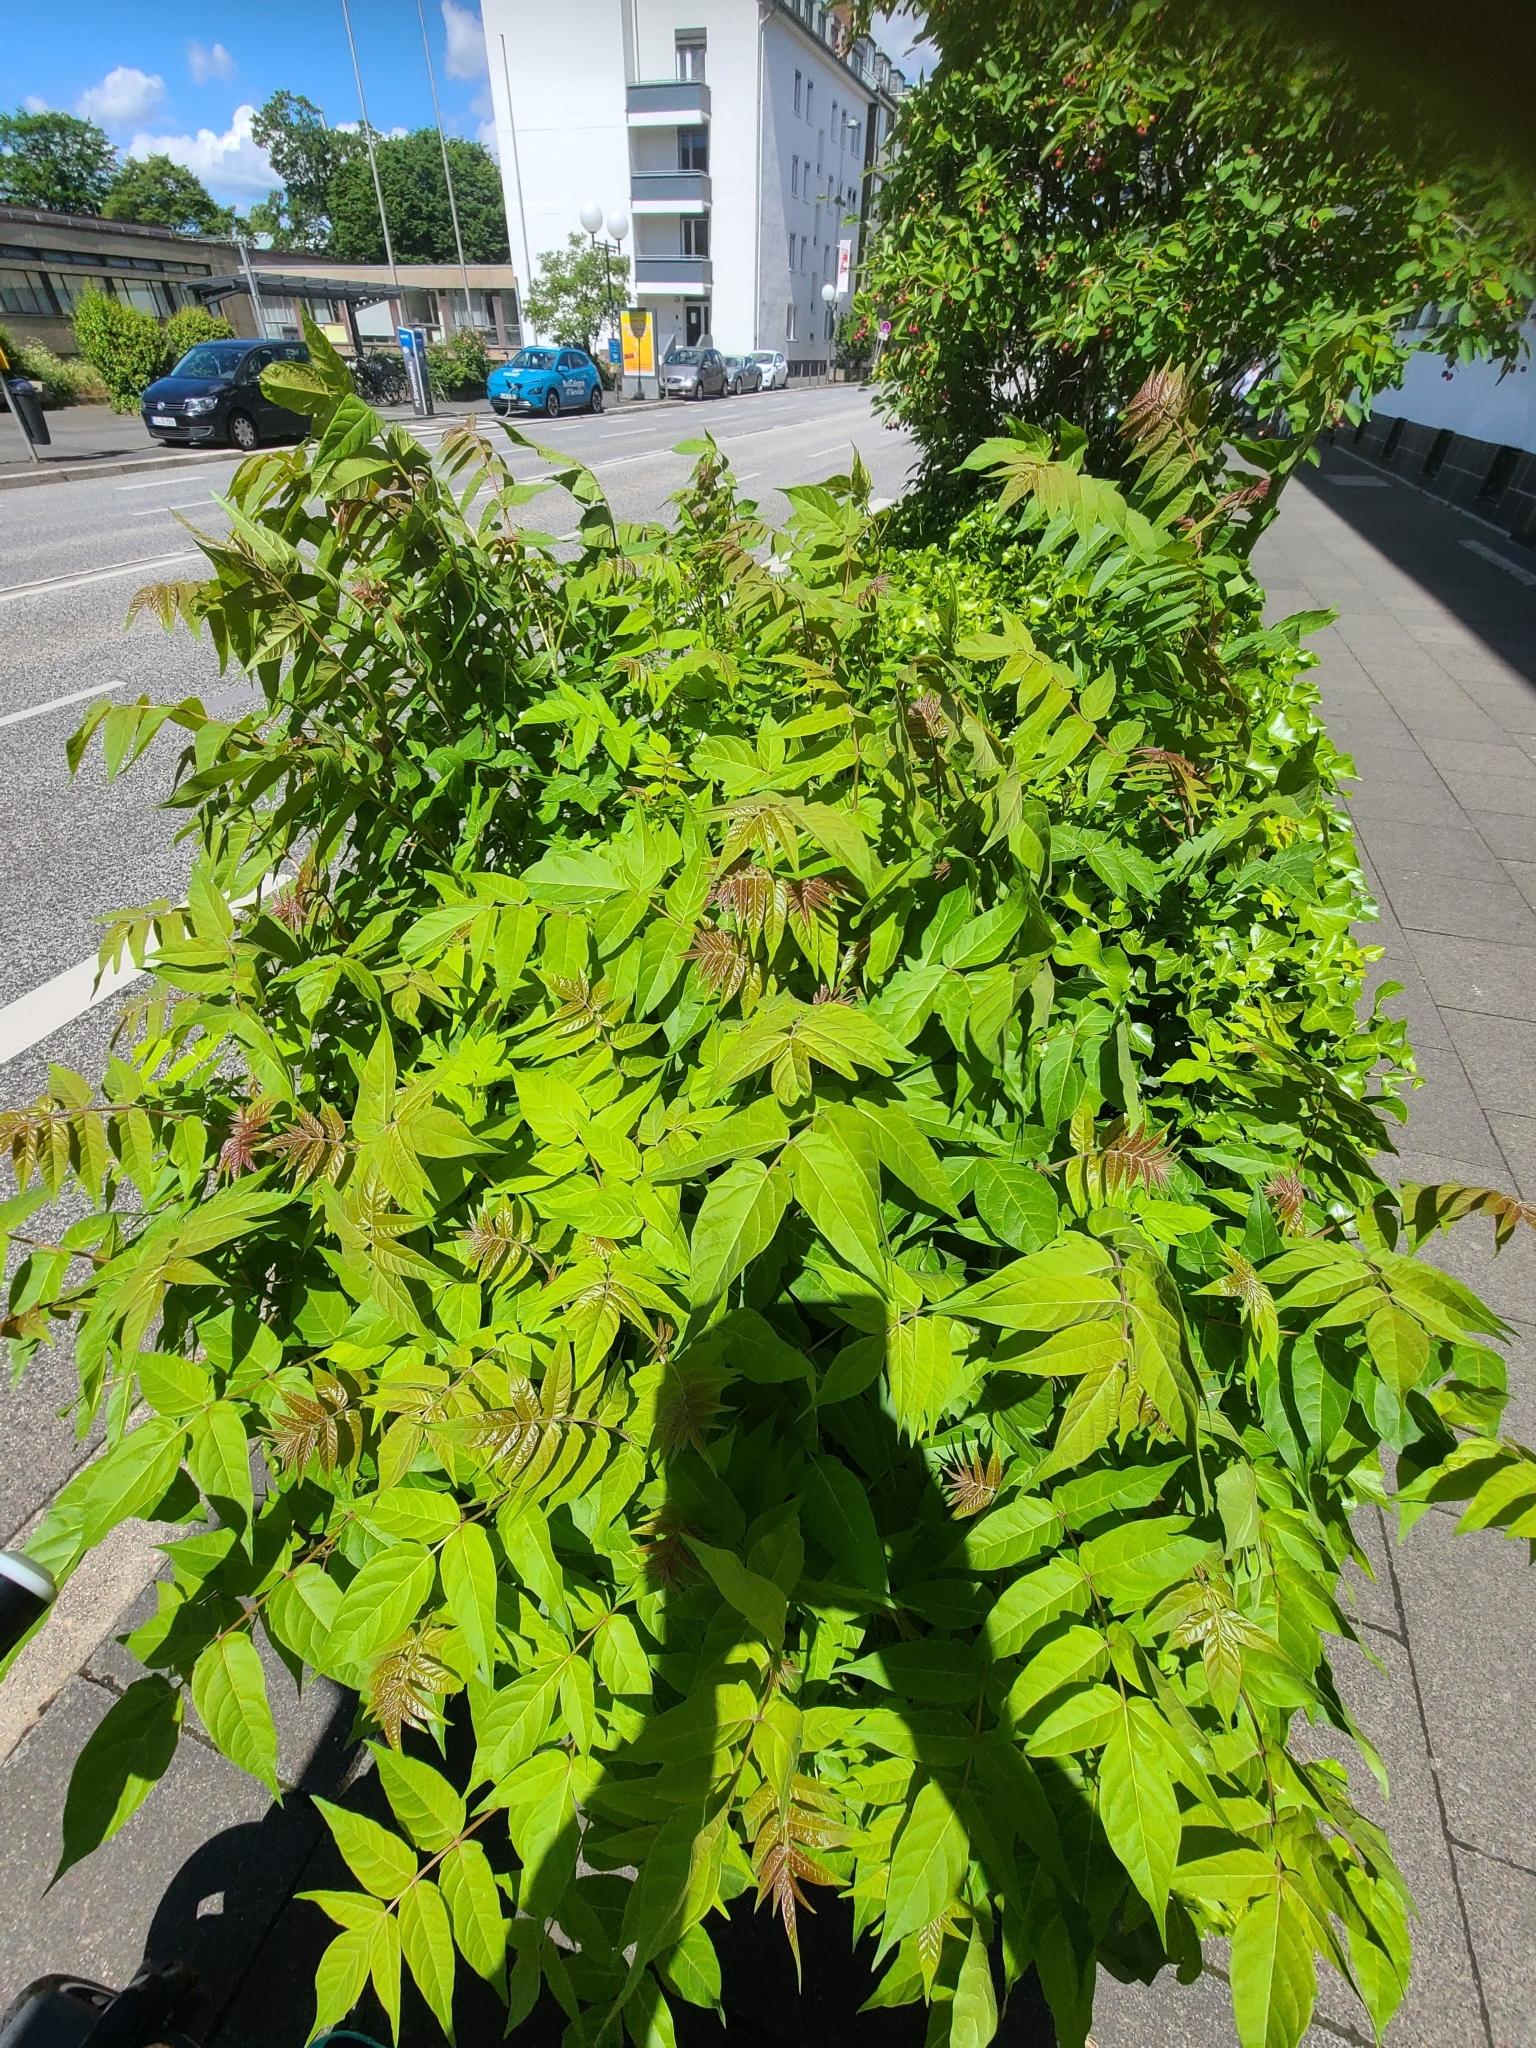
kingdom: Plantae
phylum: Tracheophyta
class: Magnoliopsida
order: Sapindales
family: Simaroubaceae
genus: Ailanthus
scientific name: Ailanthus altissima
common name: Tree-of-heaven
